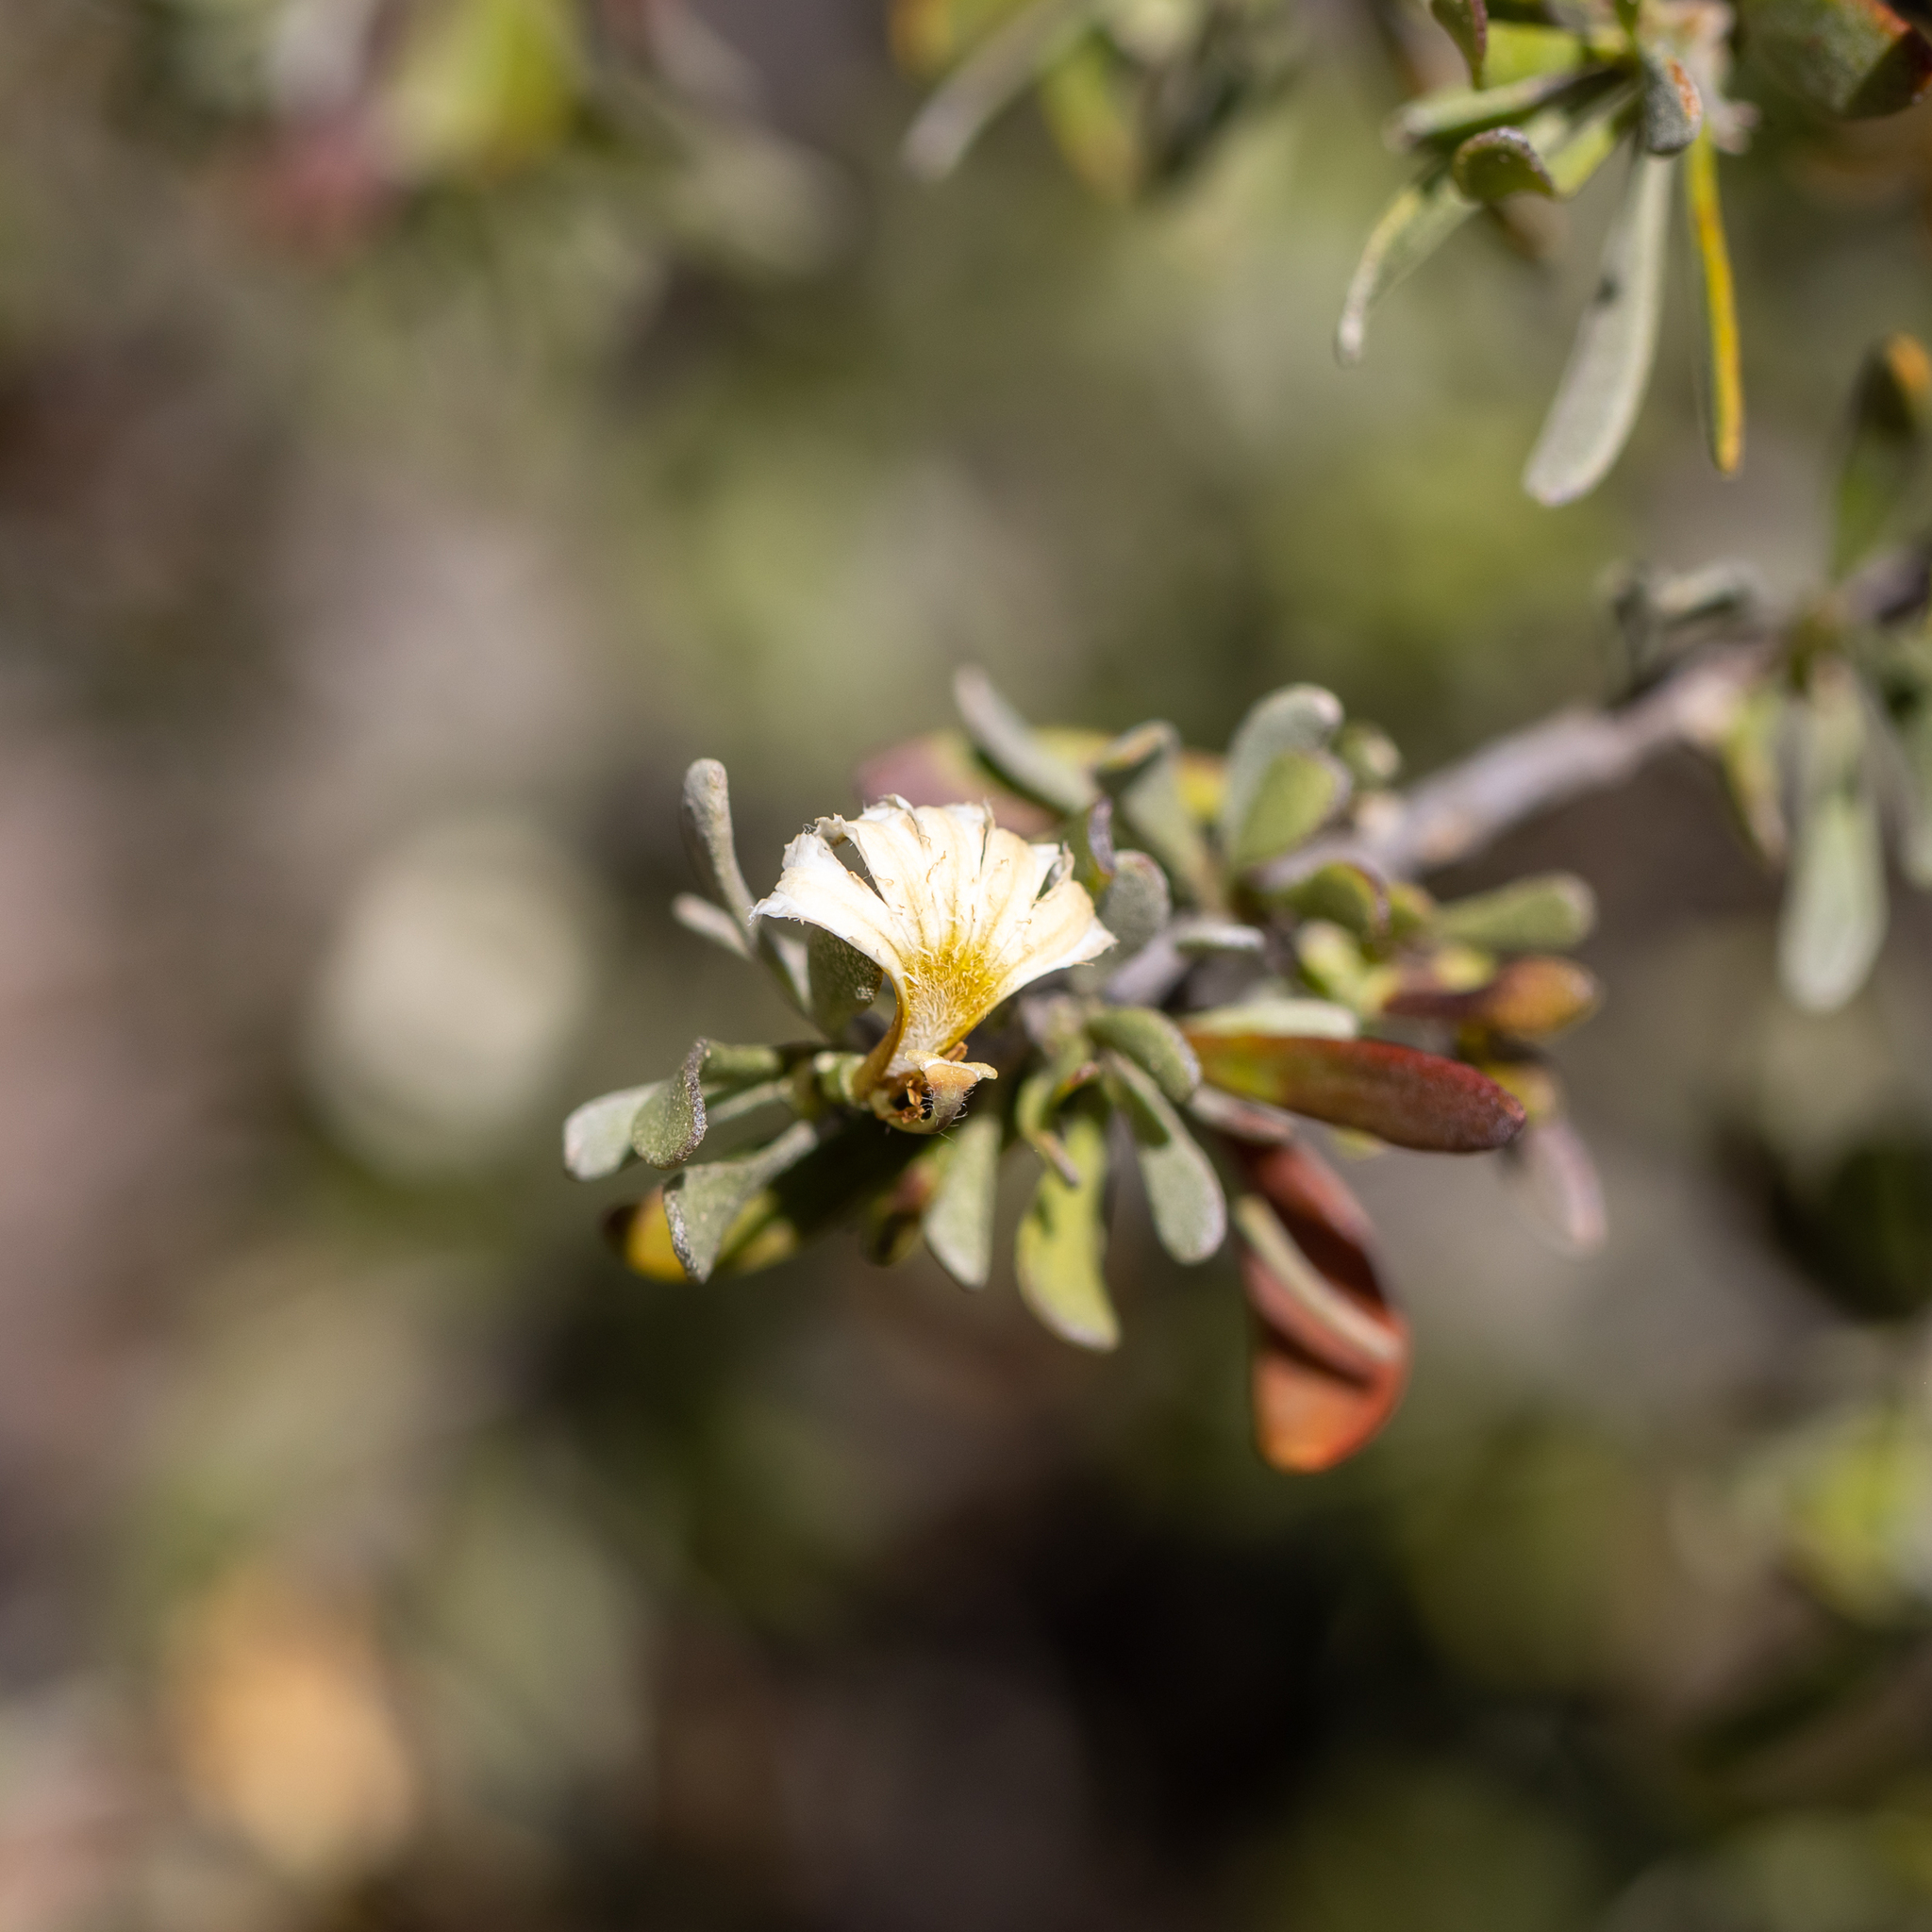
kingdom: Plantae
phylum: Tracheophyta
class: Magnoliopsida
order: Asterales
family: Goodeniaceae
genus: Scaevola
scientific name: Scaevola spinescens
